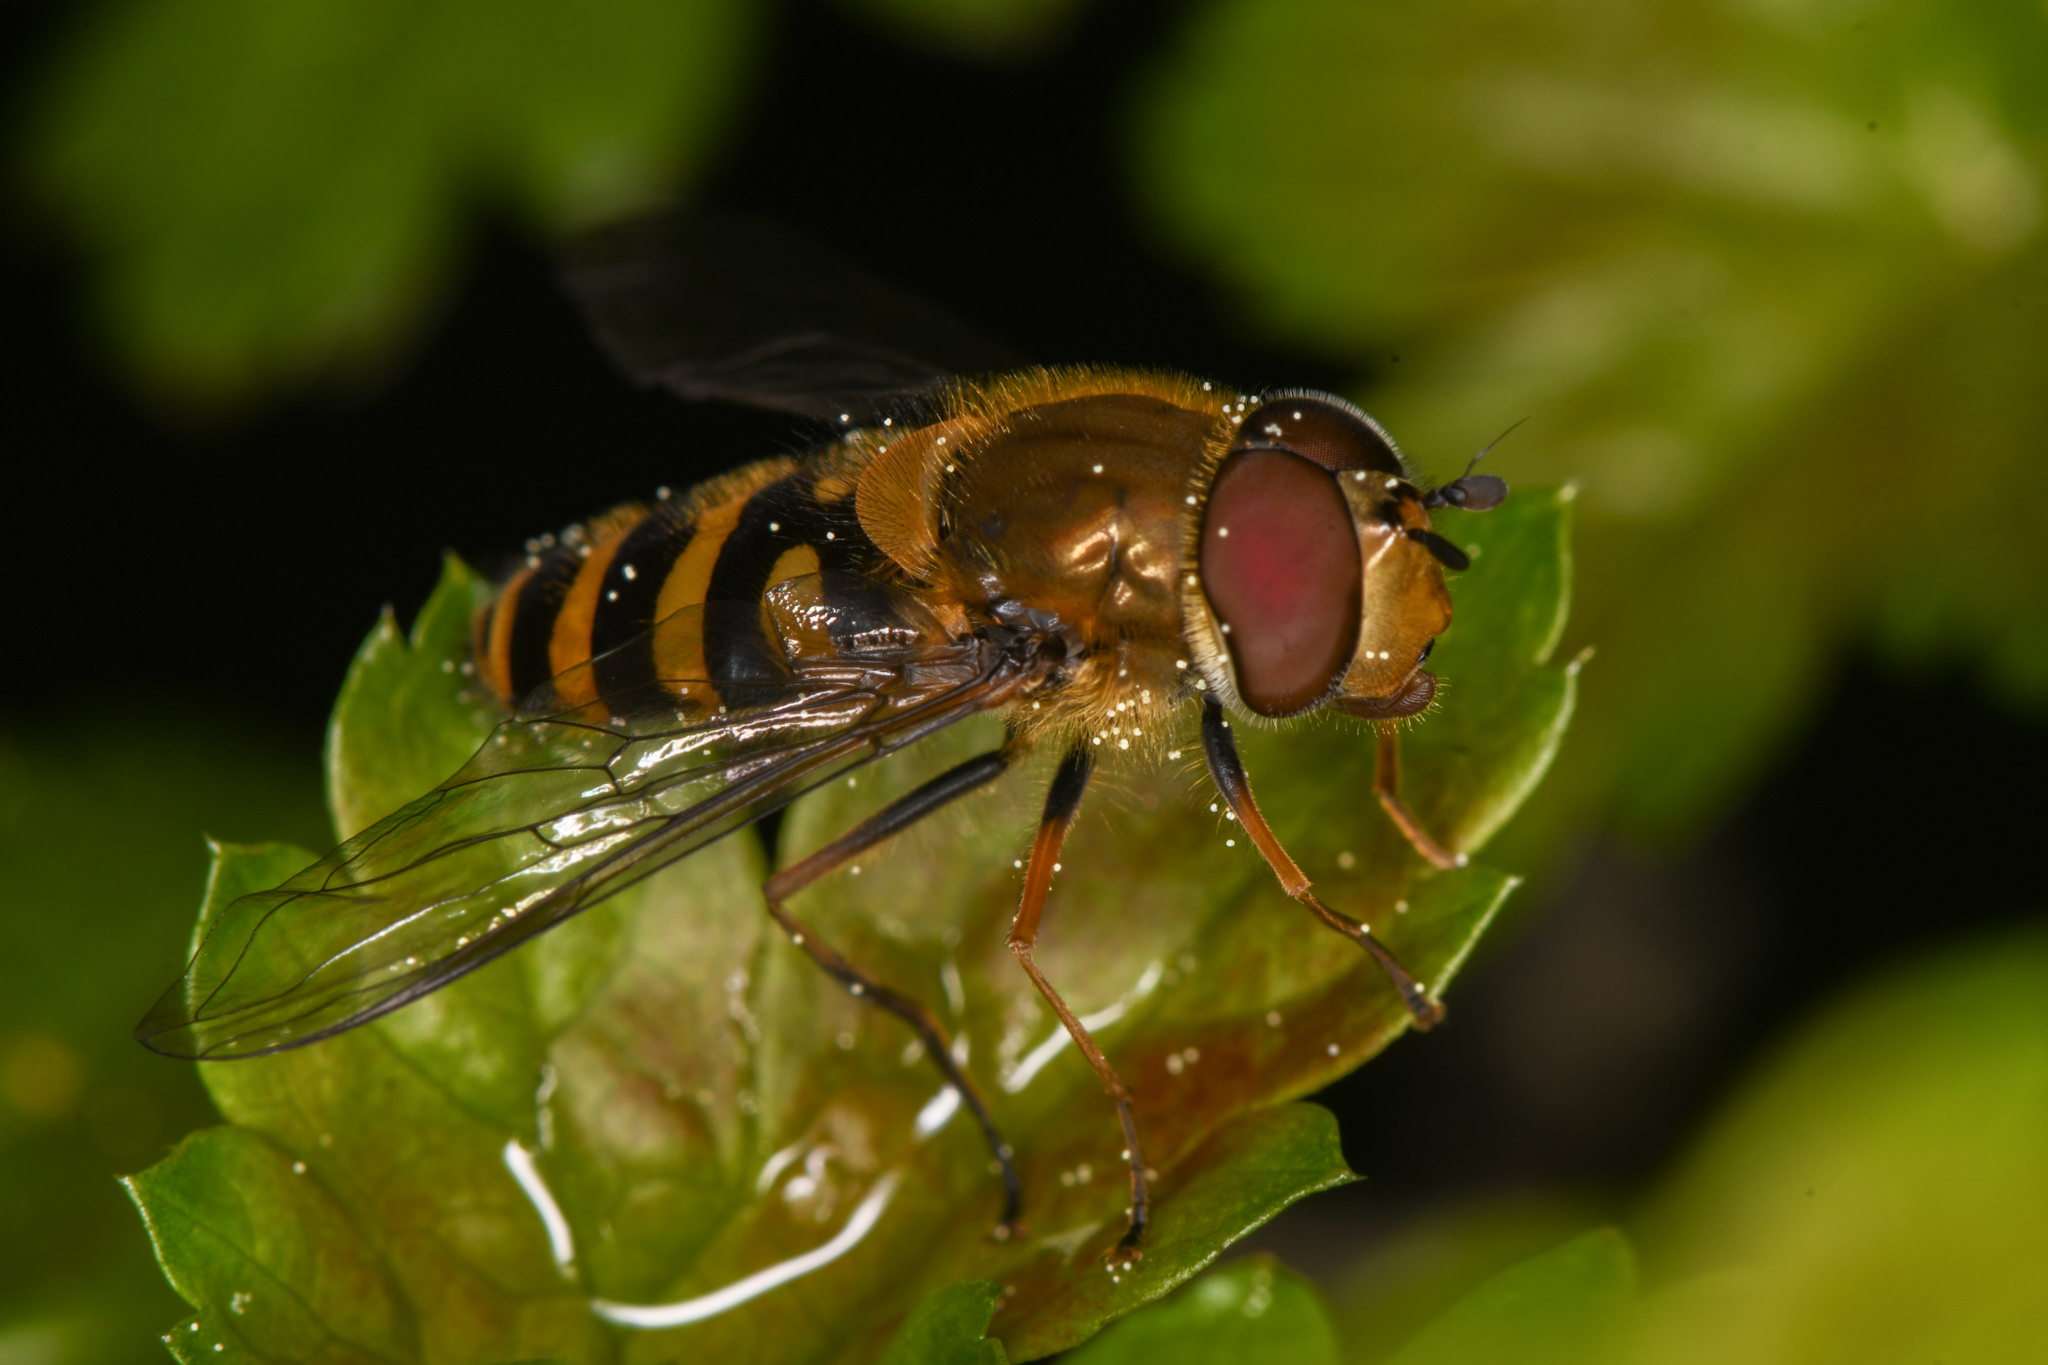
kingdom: Animalia
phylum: Arthropoda
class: Insecta
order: Diptera
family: Syrphidae
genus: Syrphus
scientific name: Syrphus torvus
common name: Hairy-eyed flower fly
